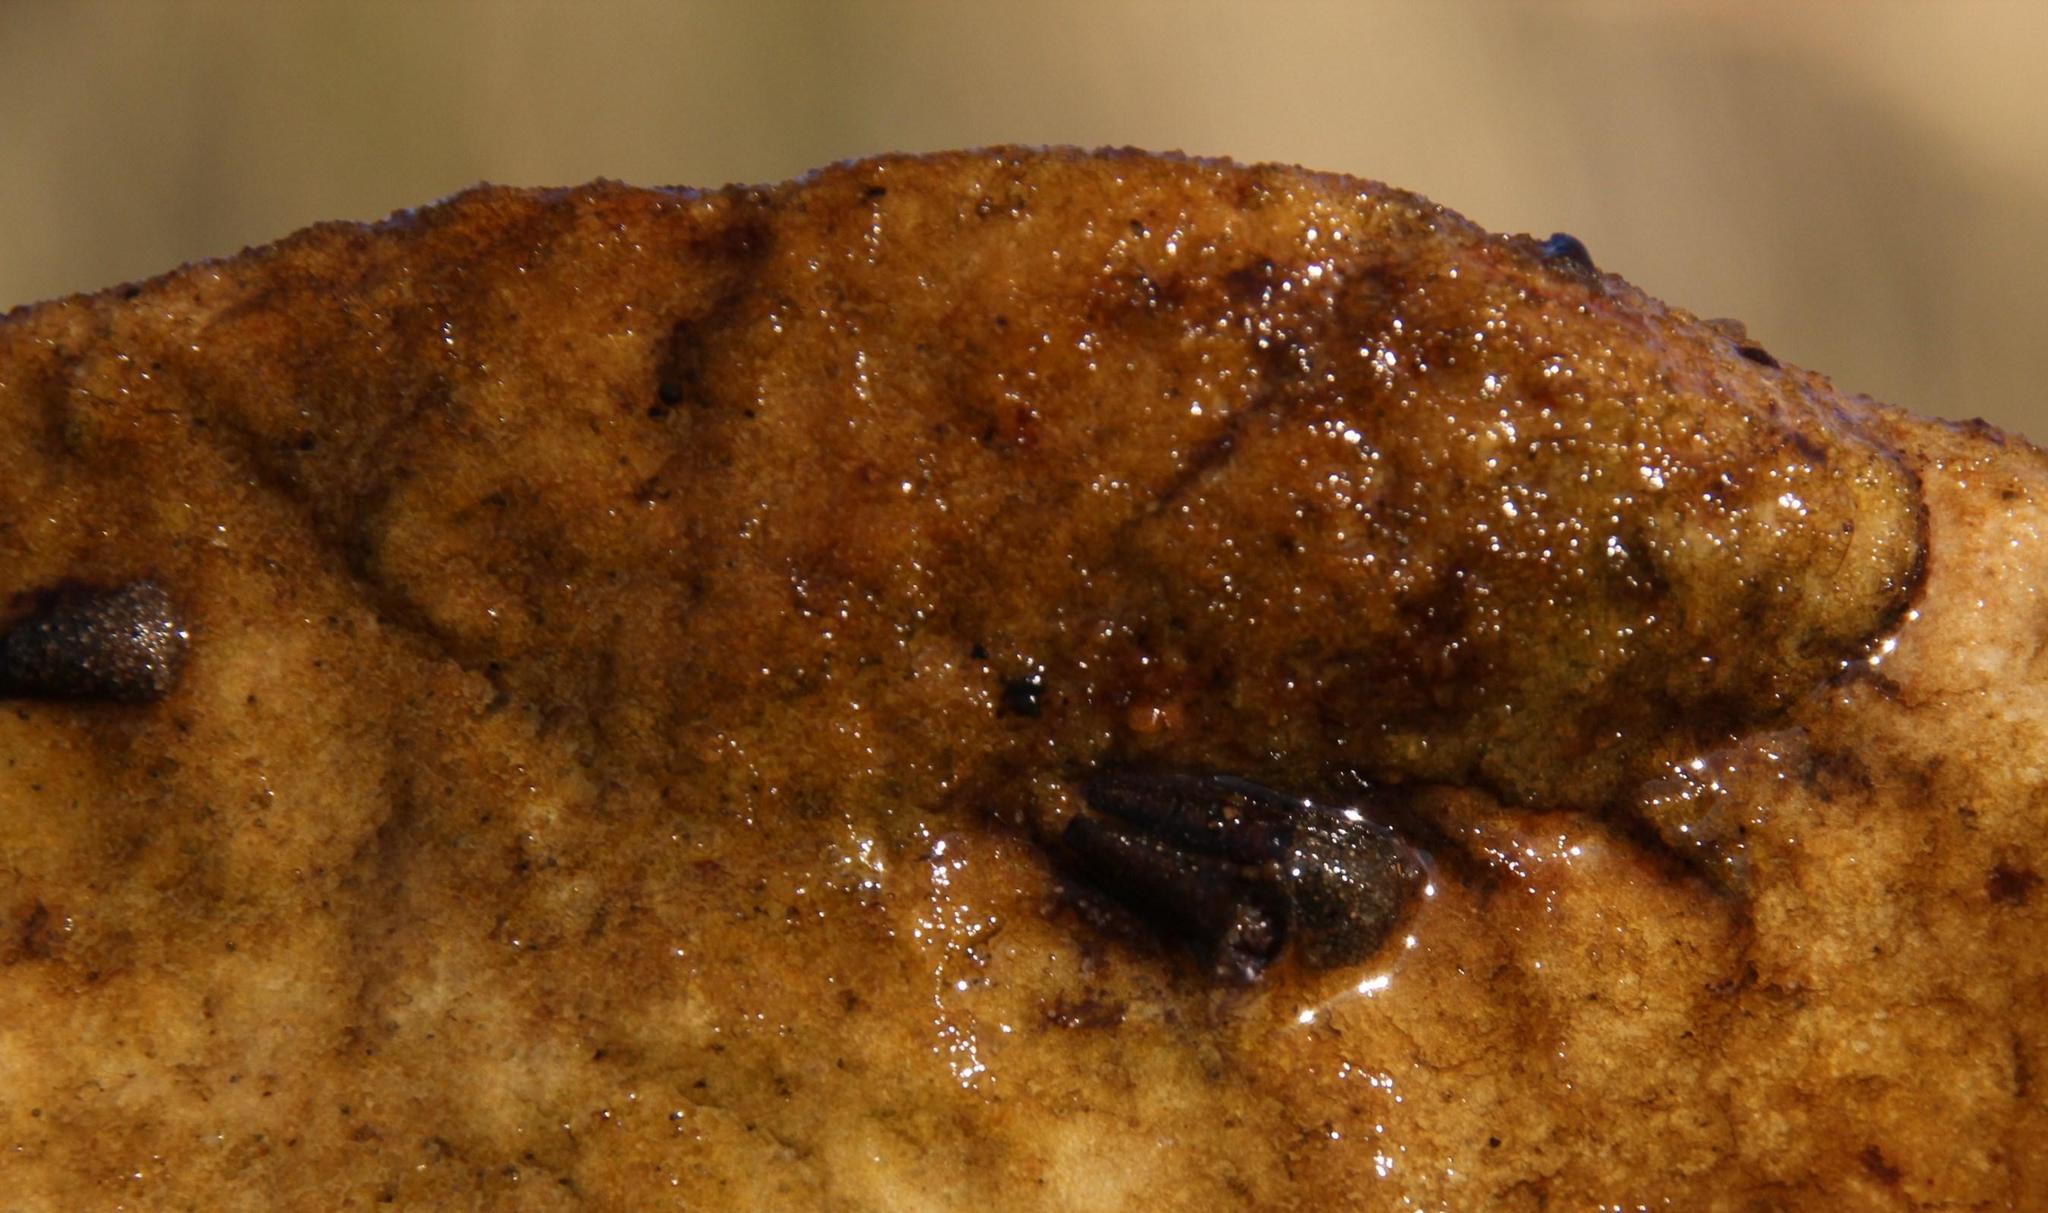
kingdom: Animalia
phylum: Arthropoda
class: Insecta
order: Trichoptera
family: Petrothrincidae
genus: Petrothrincus
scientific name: Petrothrincus triangularis
